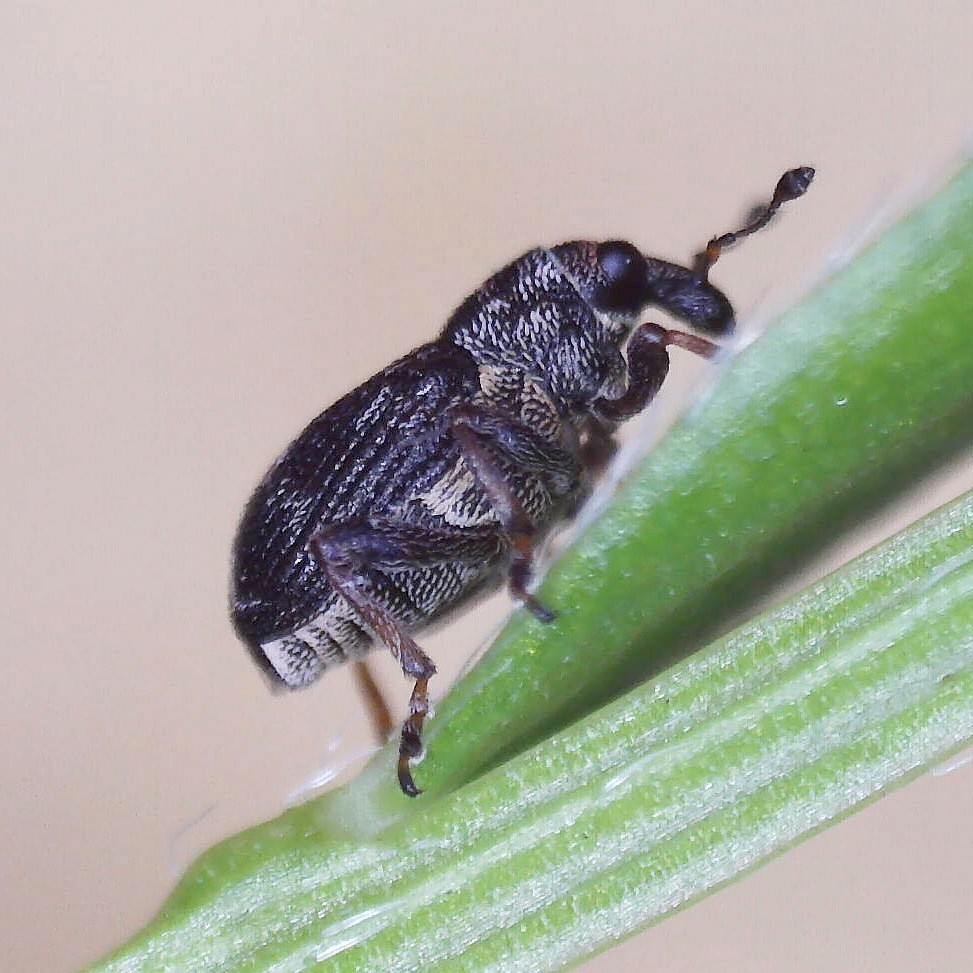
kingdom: Animalia
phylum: Arthropoda
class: Insecta
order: Coleoptera
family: Curculionidae
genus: Rhinoncus
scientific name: Rhinoncus perpendicularis
